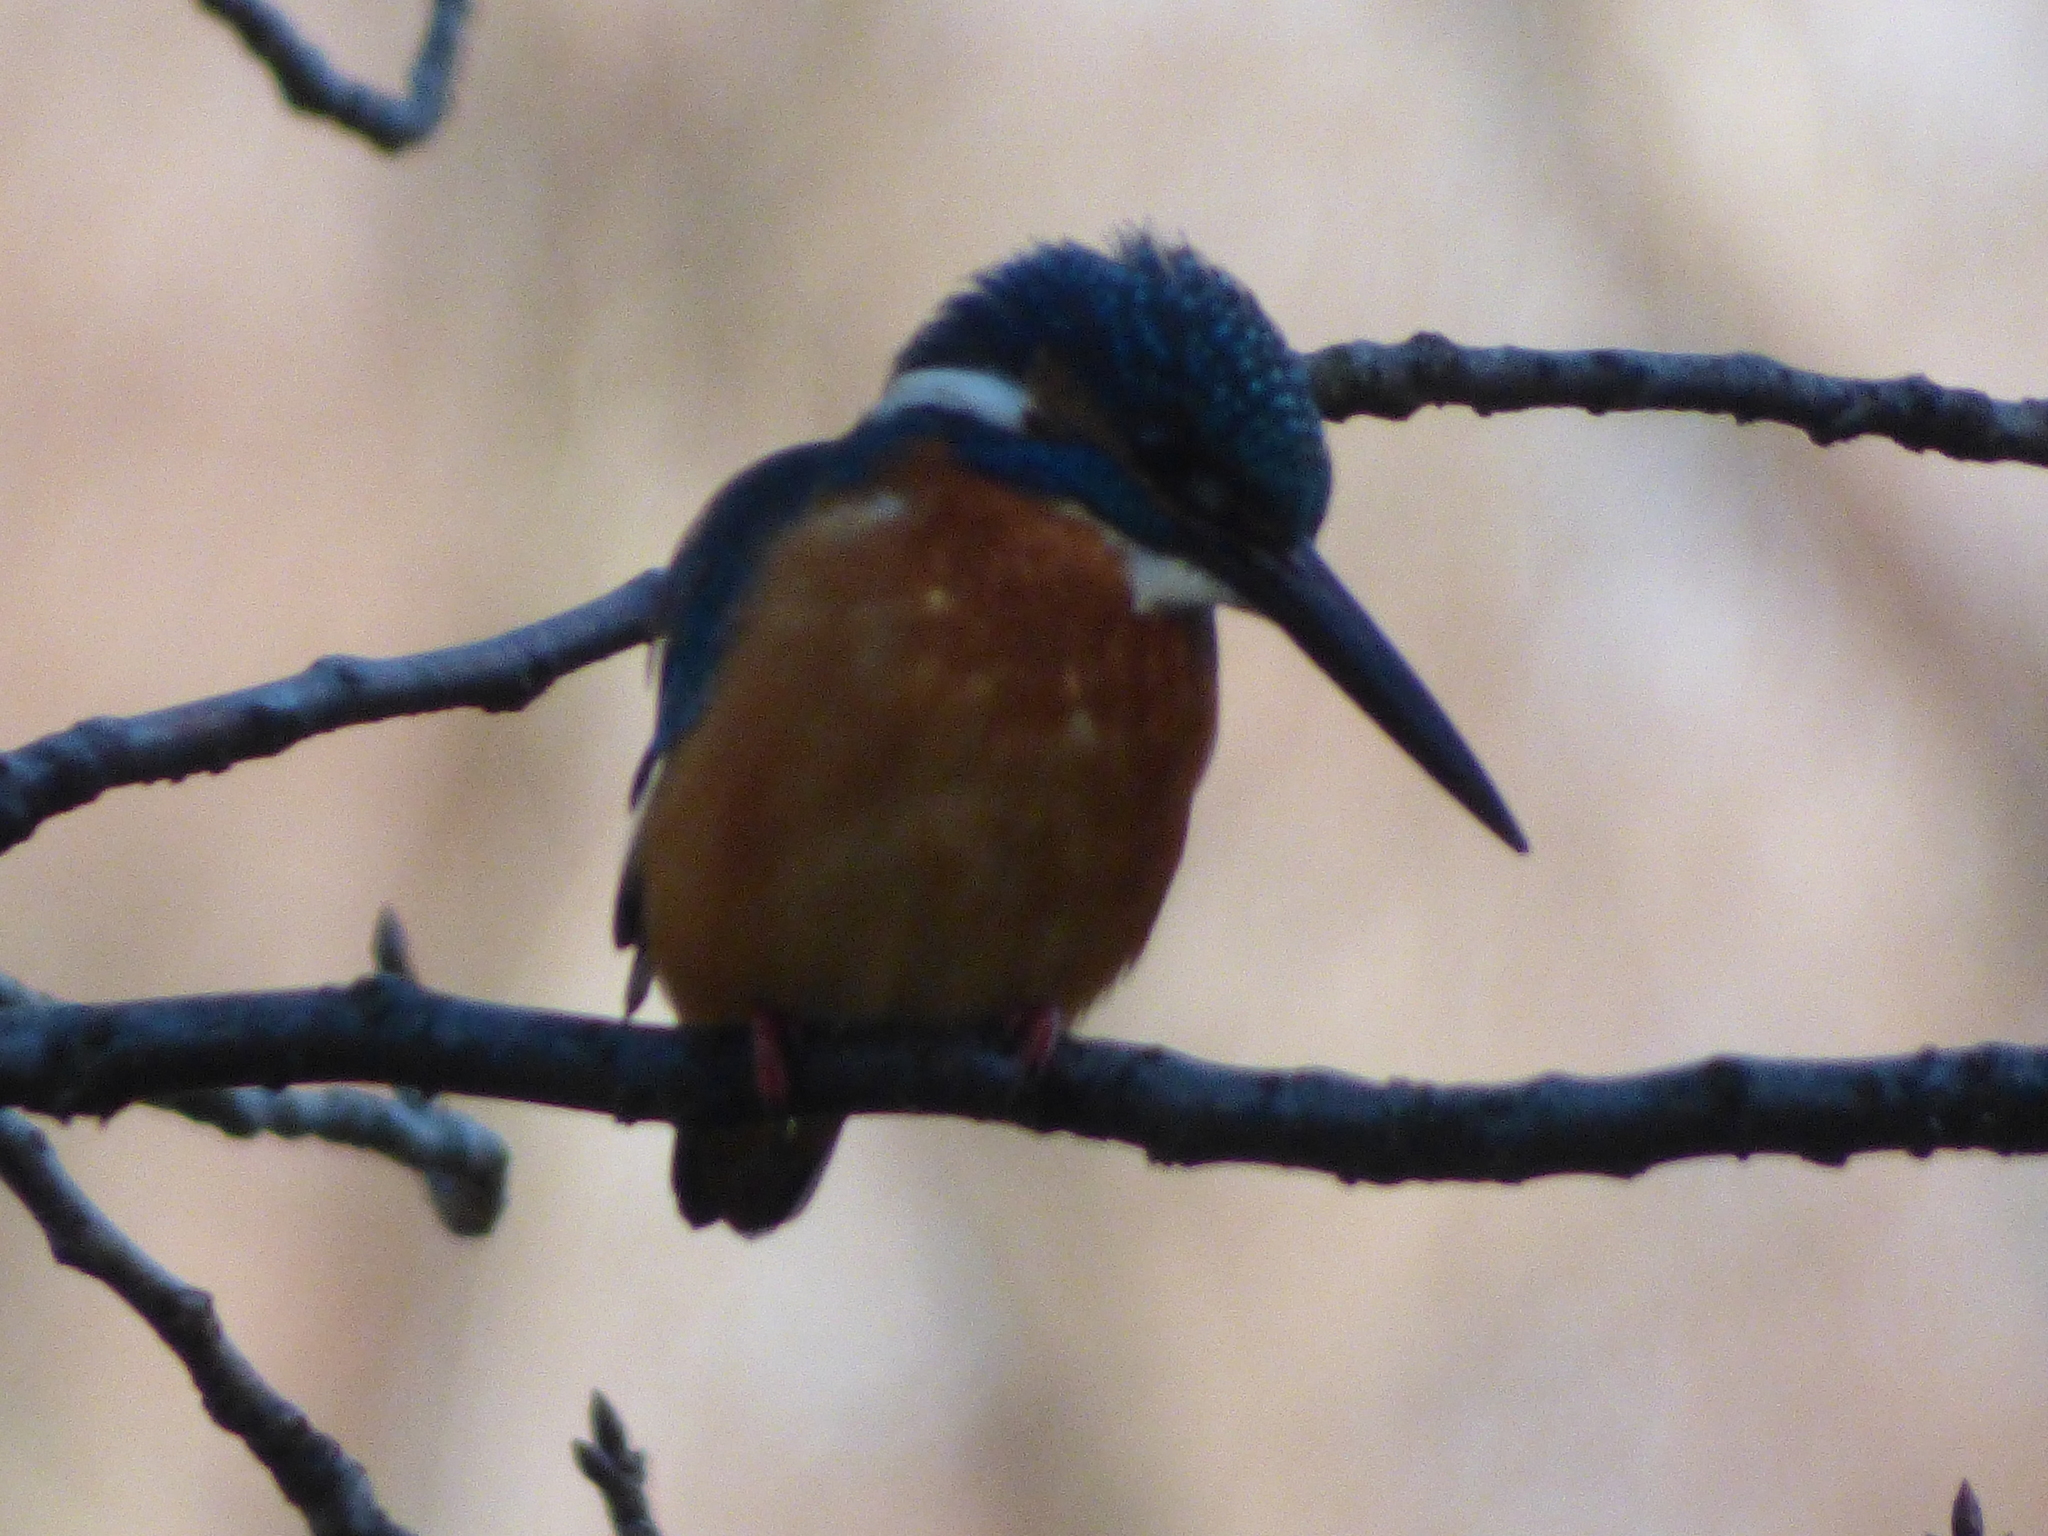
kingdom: Animalia
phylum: Chordata
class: Aves
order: Coraciiformes
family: Alcedinidae
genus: Alcedo
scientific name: Alcedo atthis
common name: Common kingfisher
